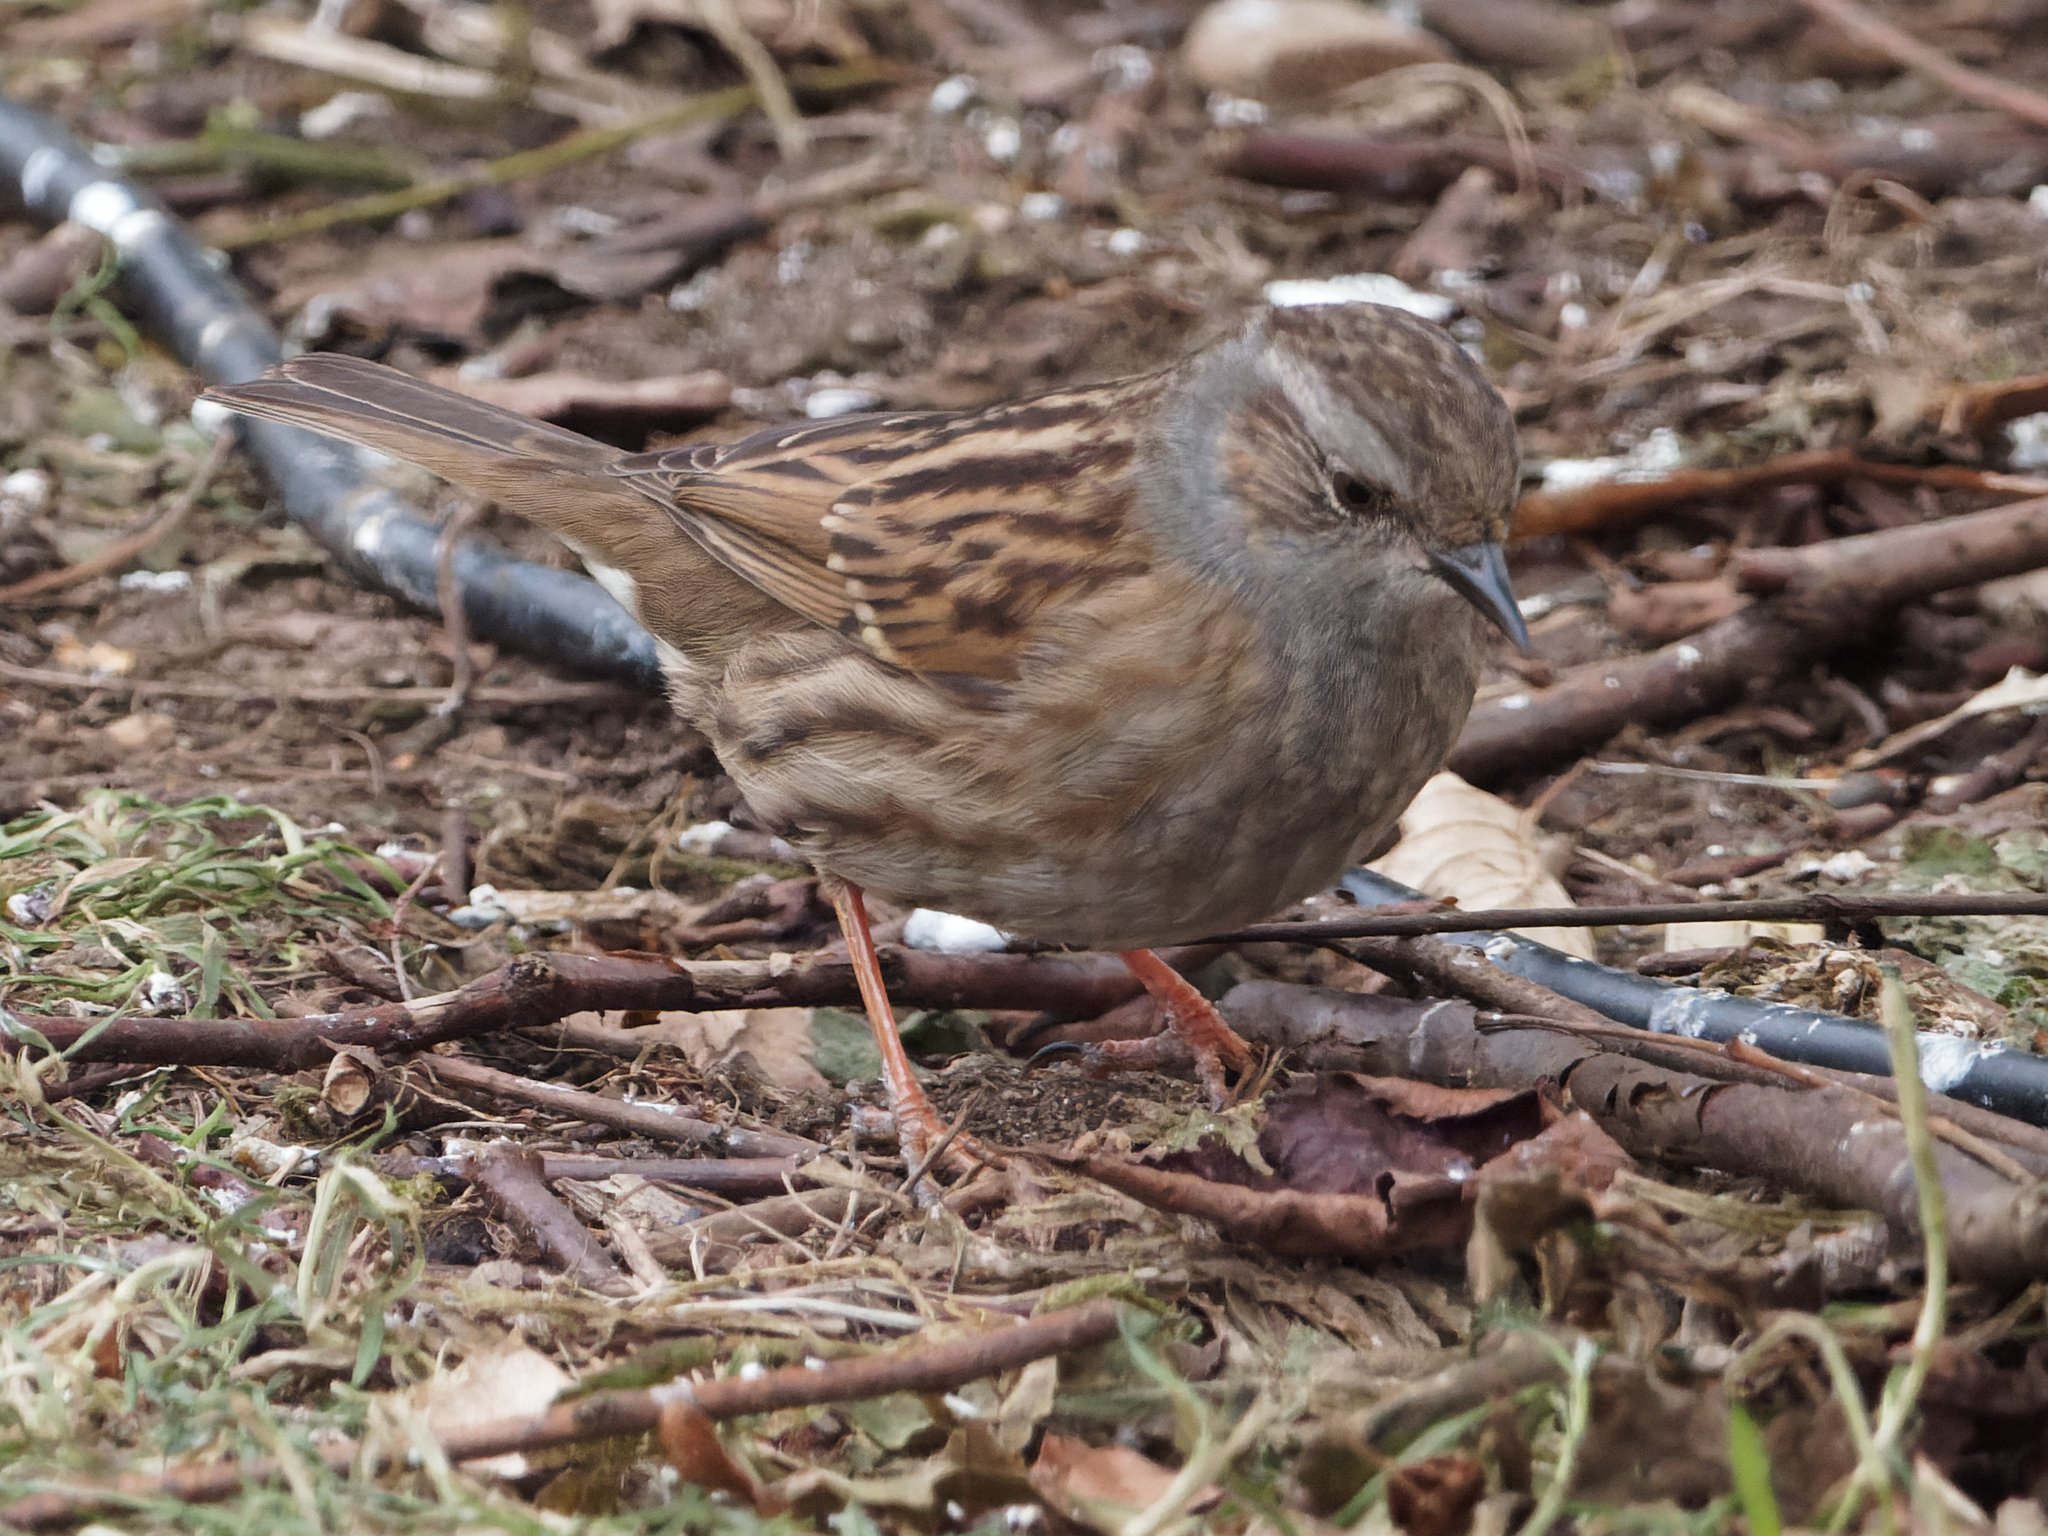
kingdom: Animalia
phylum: Chordata
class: Aves
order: Passeriformes
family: Prunellidae
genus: Prunella
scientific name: Prunella modularis
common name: Dunnock
